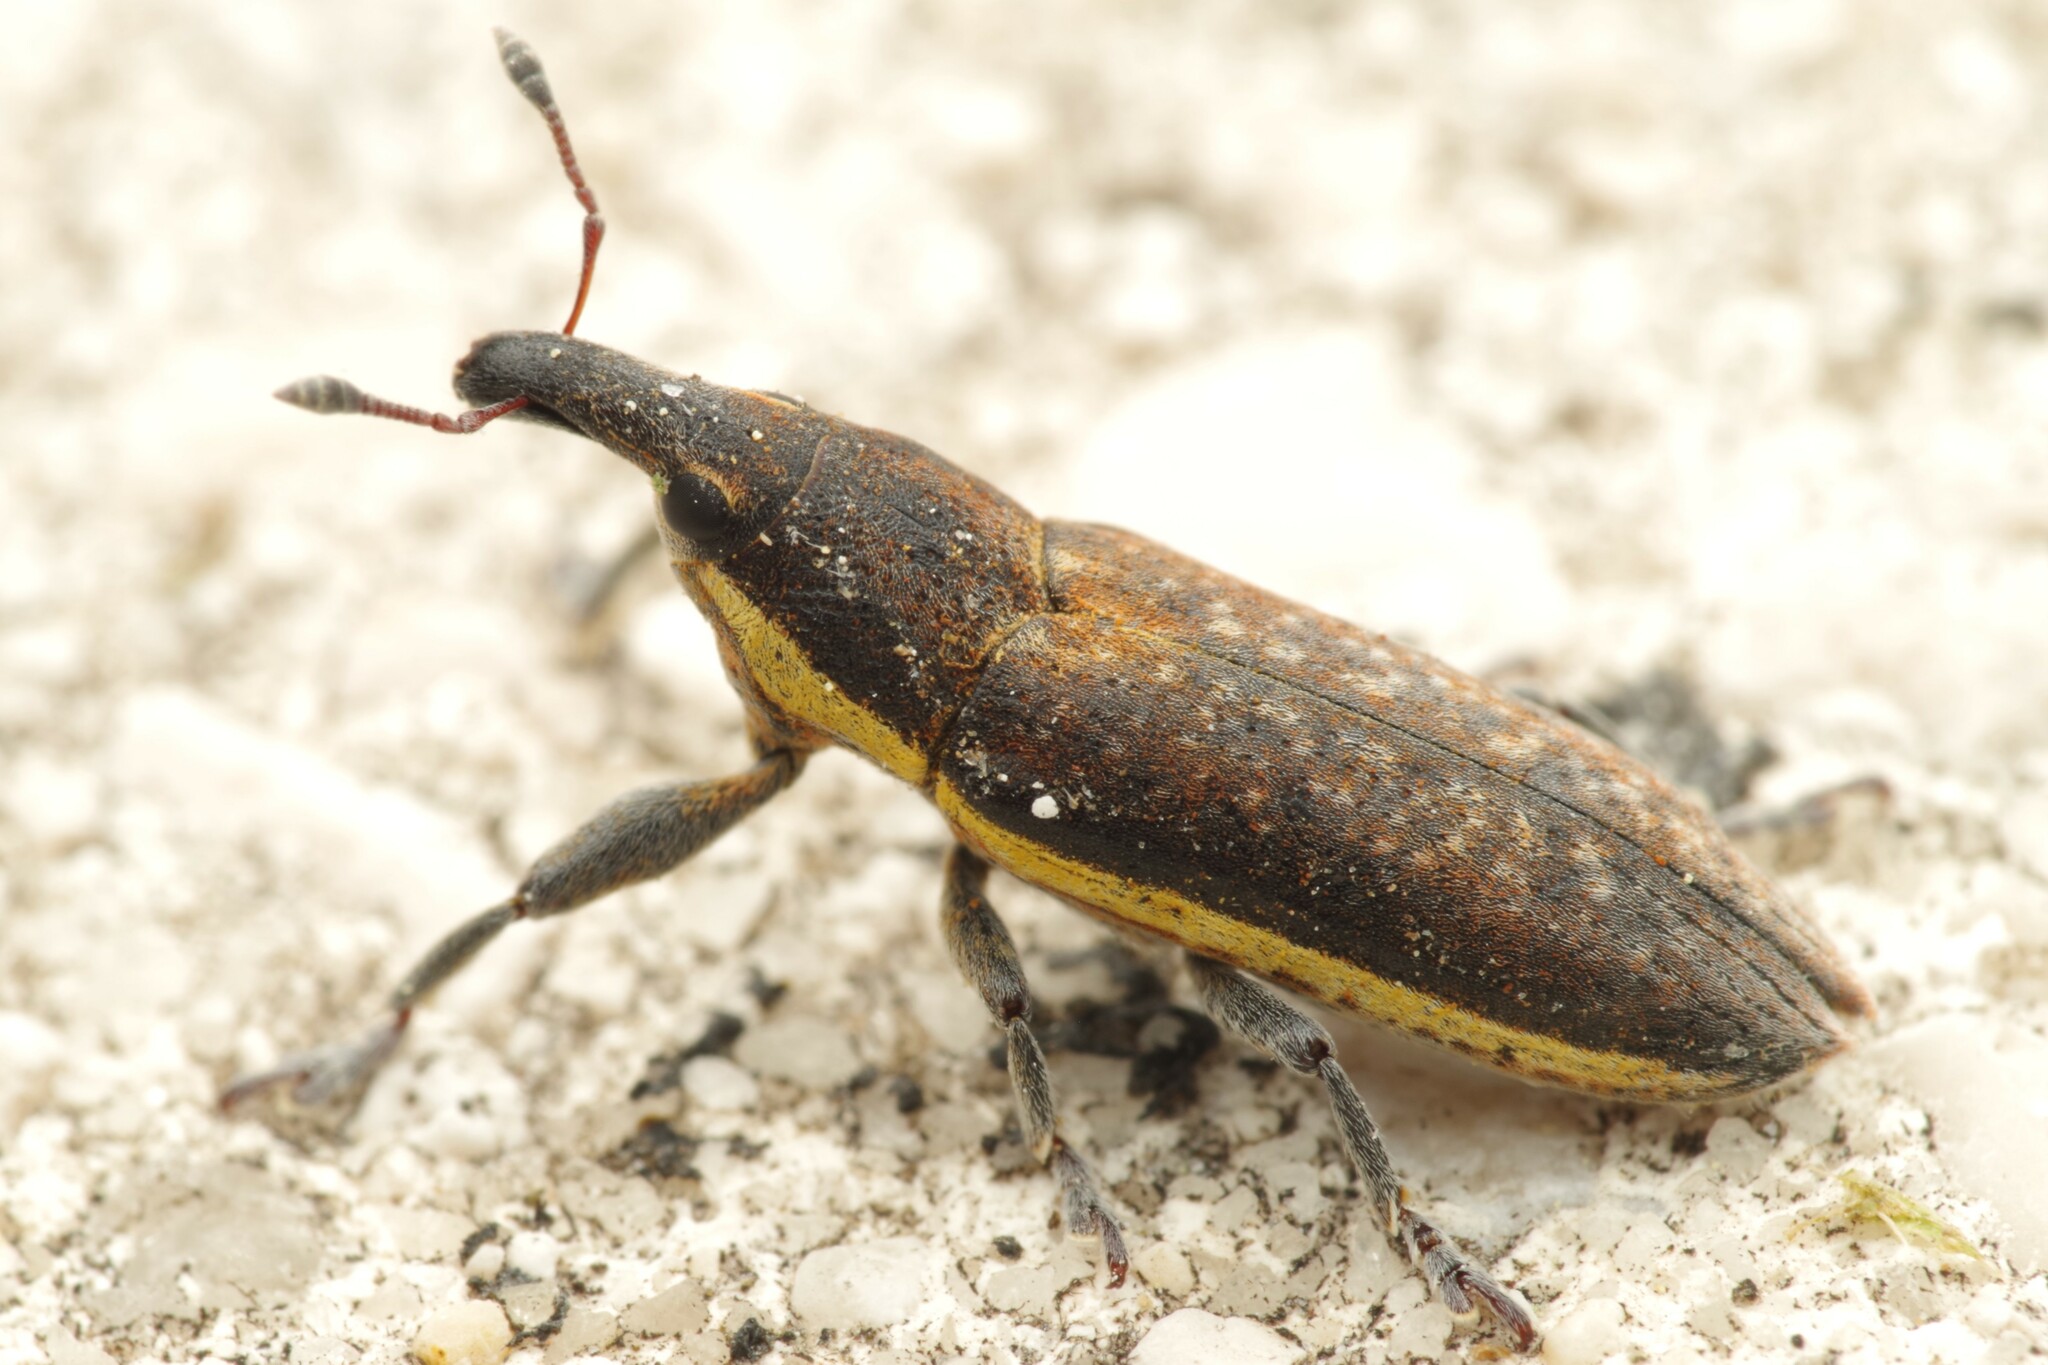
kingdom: Animalia
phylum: Arthropoda
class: Insecta
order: Coleoptera
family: Curculionidae
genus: Lixus
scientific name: Lixus ochraceus
